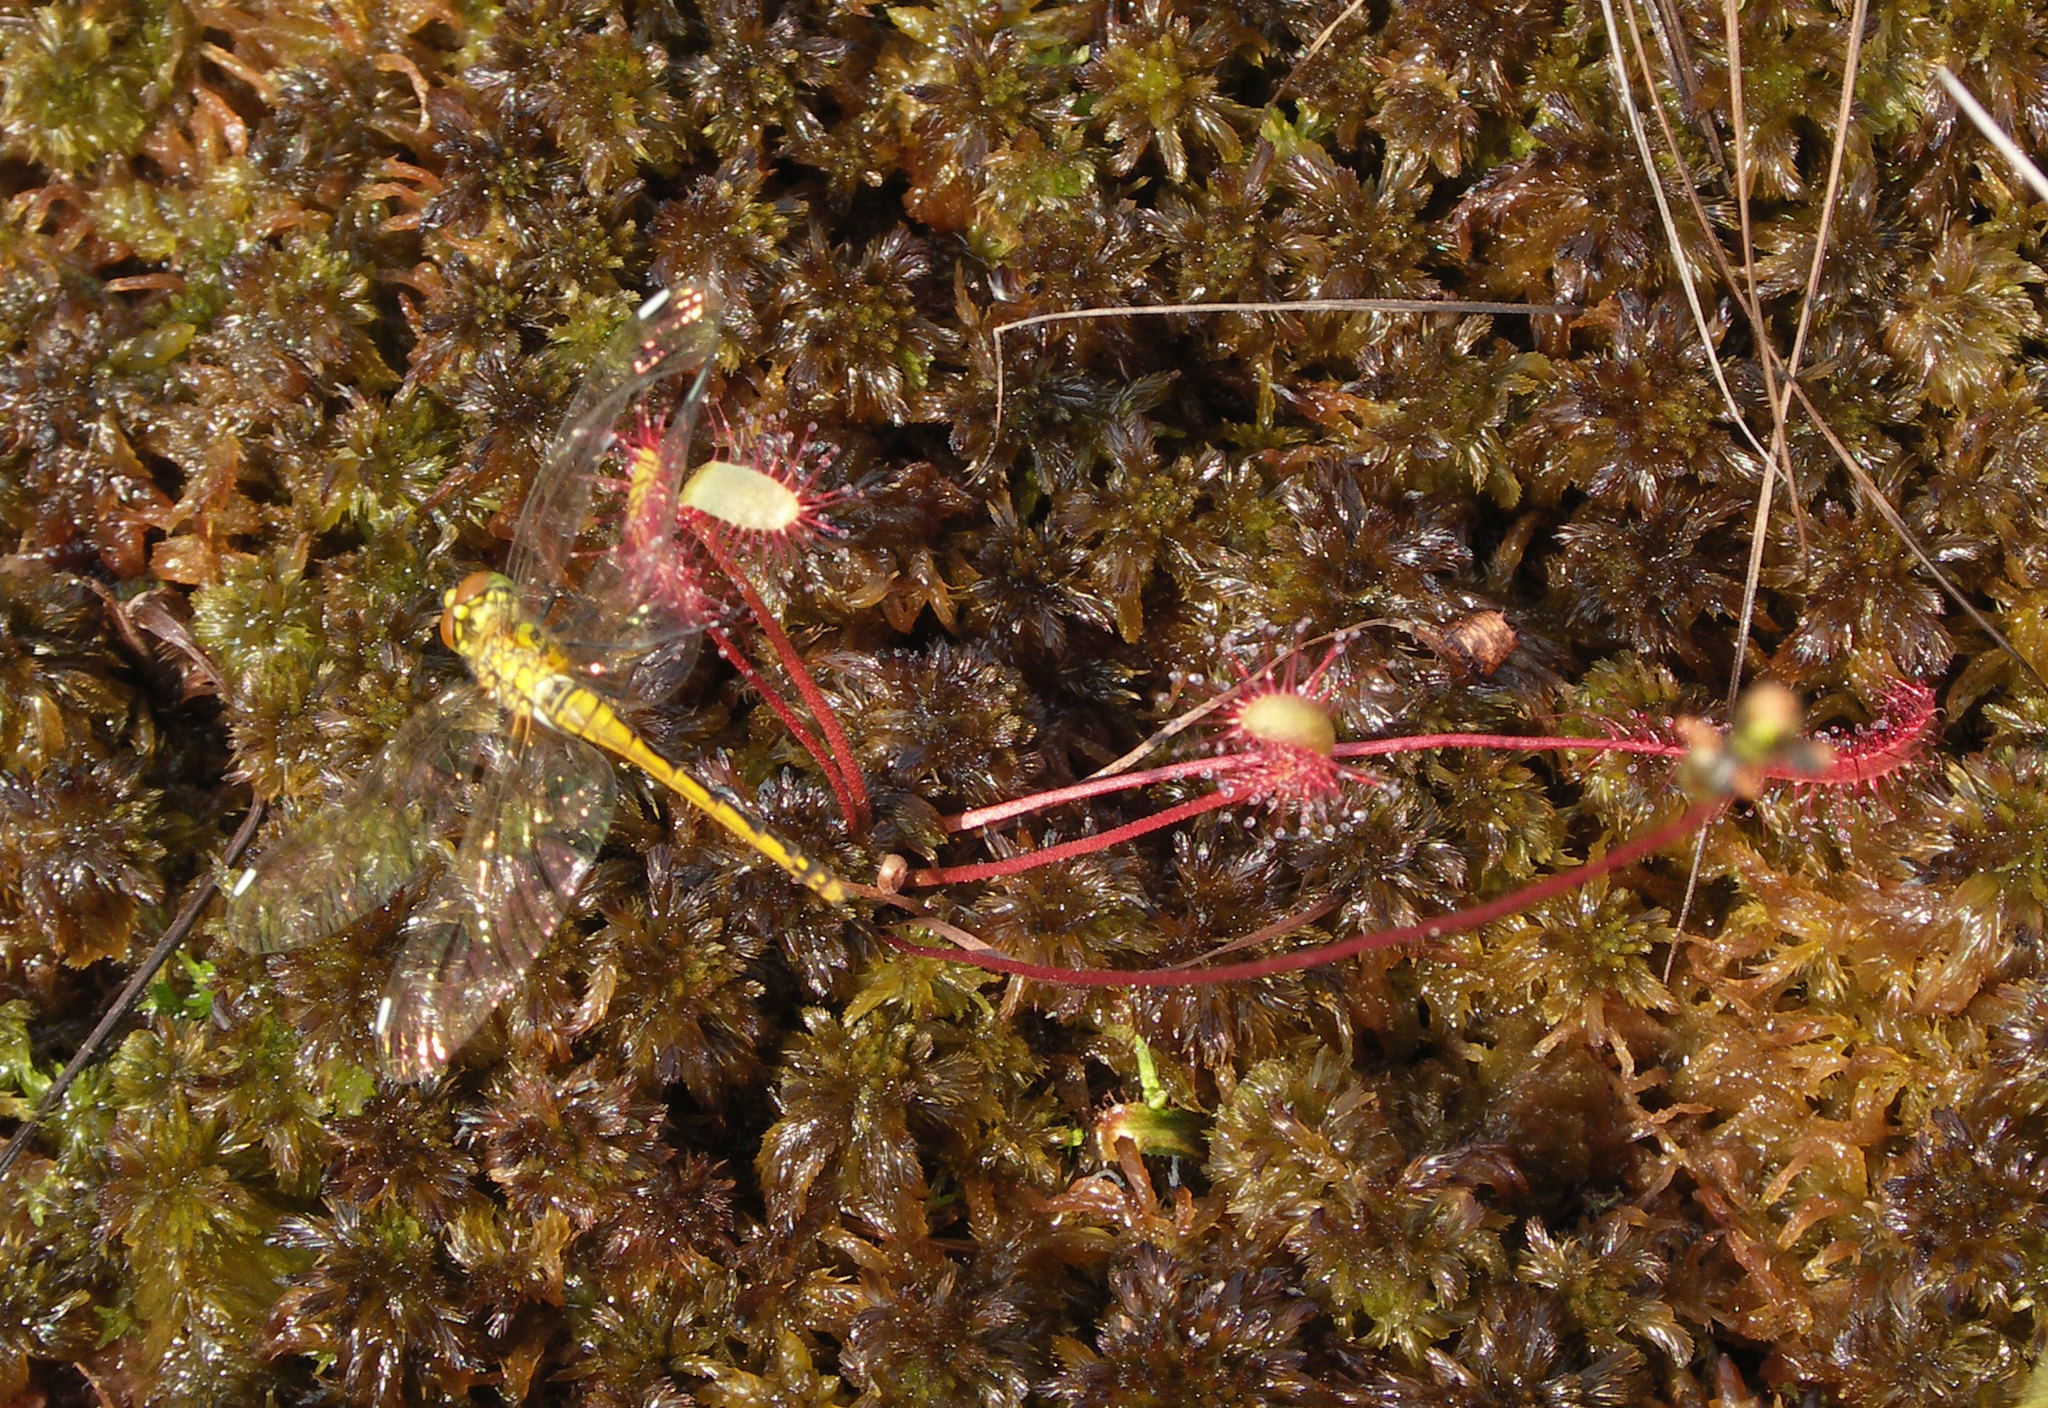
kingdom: Animalia
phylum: Arthropoda
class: Insecta
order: Odonata
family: Libellulidae
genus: Sympetrum
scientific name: Sympetrum danae
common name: Black darter
